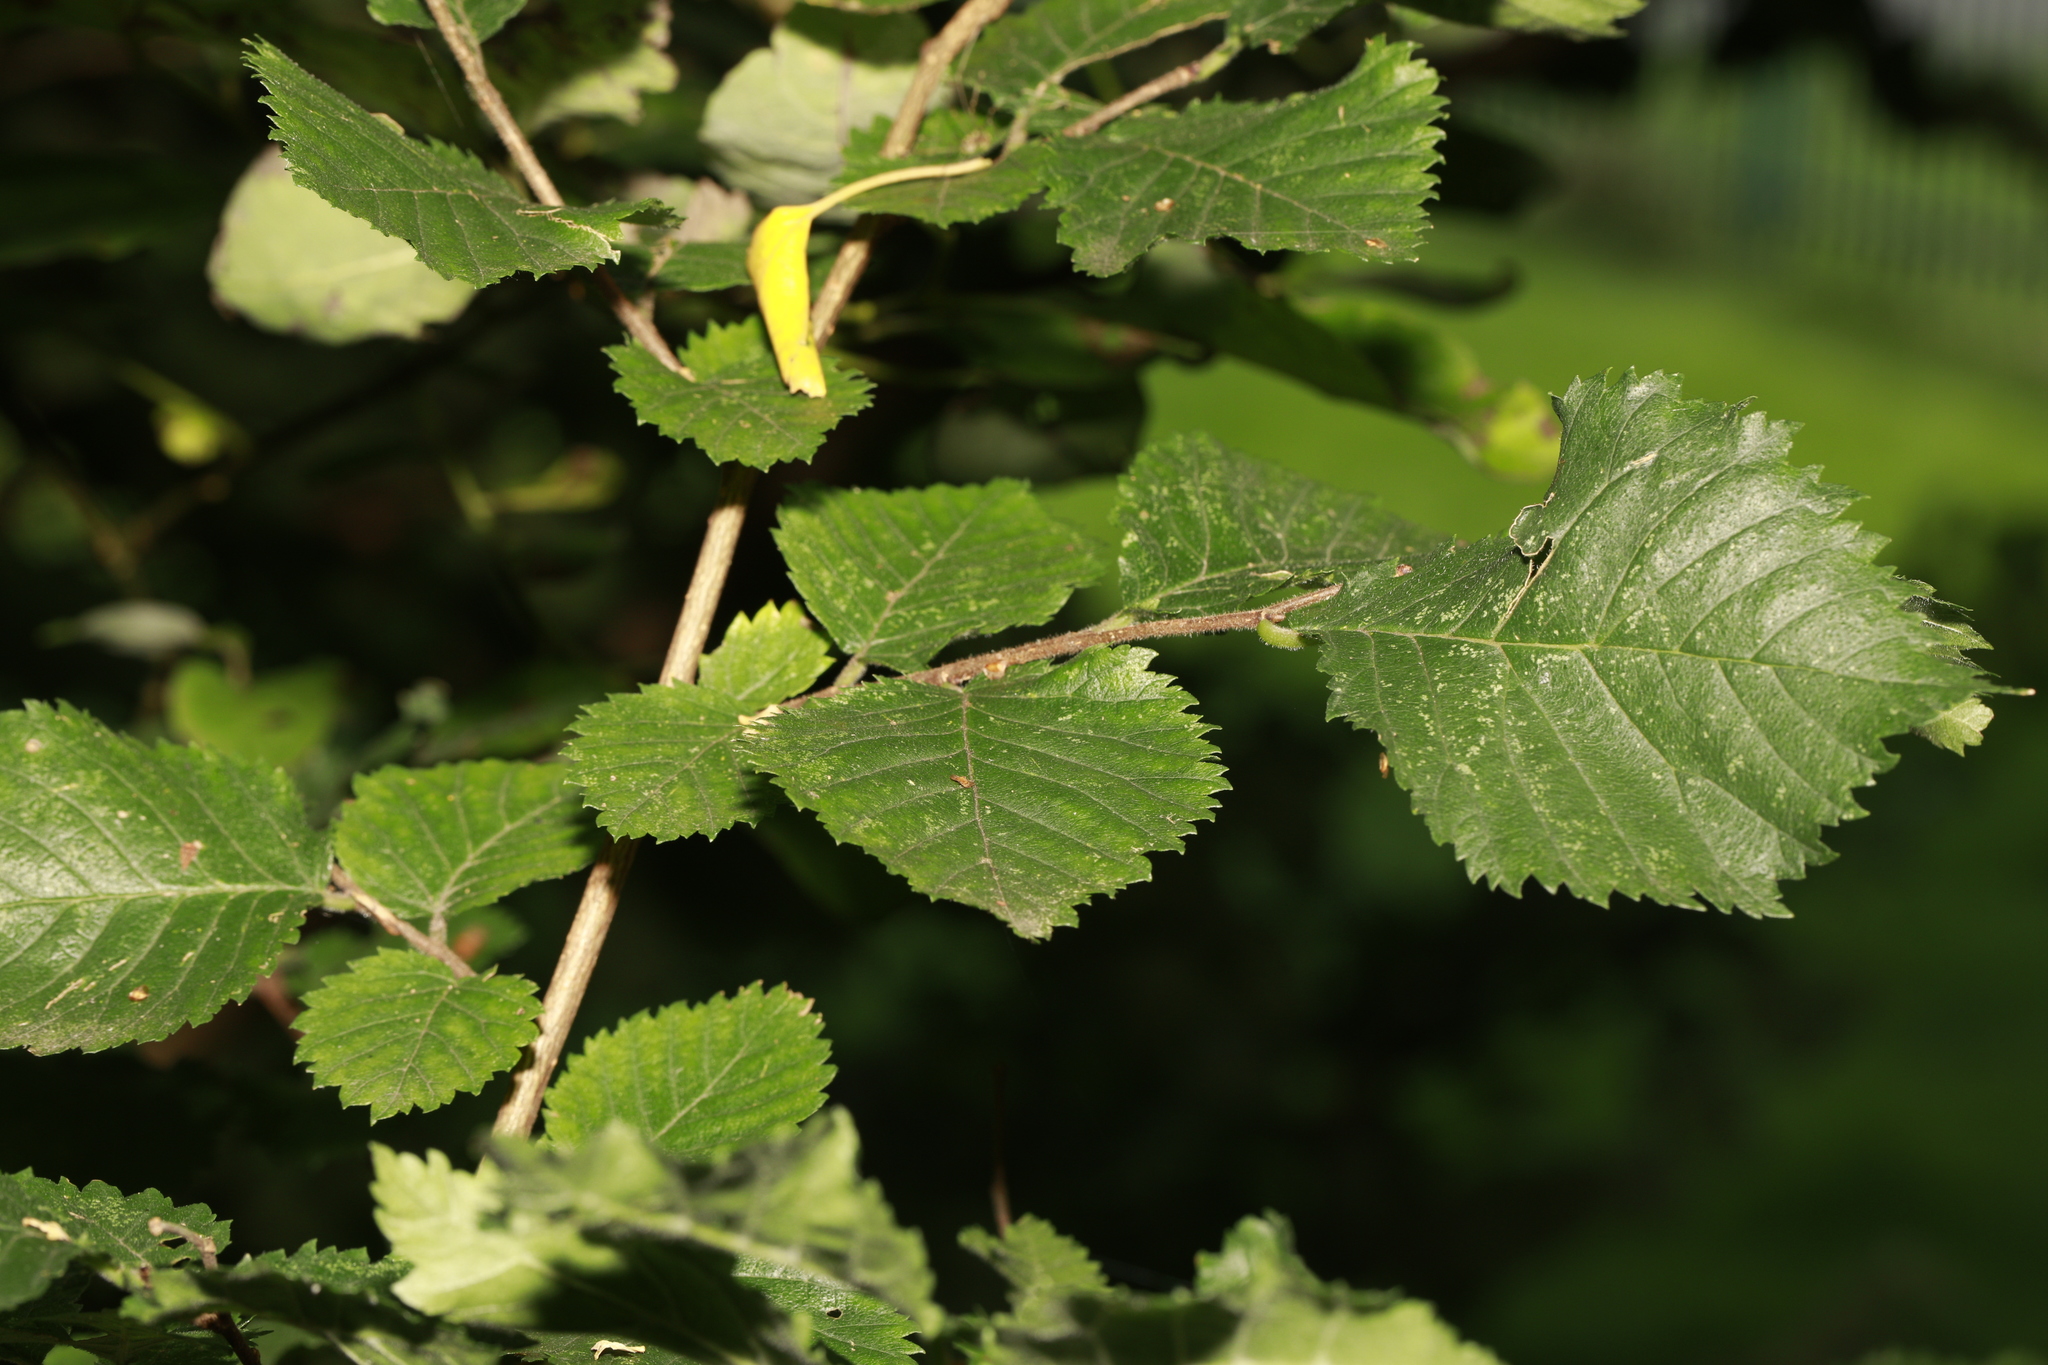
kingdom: Plantae
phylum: Tracheophyta
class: Magnoliopsida
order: Rosales
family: Ulmaceae
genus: Ulmus
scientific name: Ulmus minor
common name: Small-leaved elm
